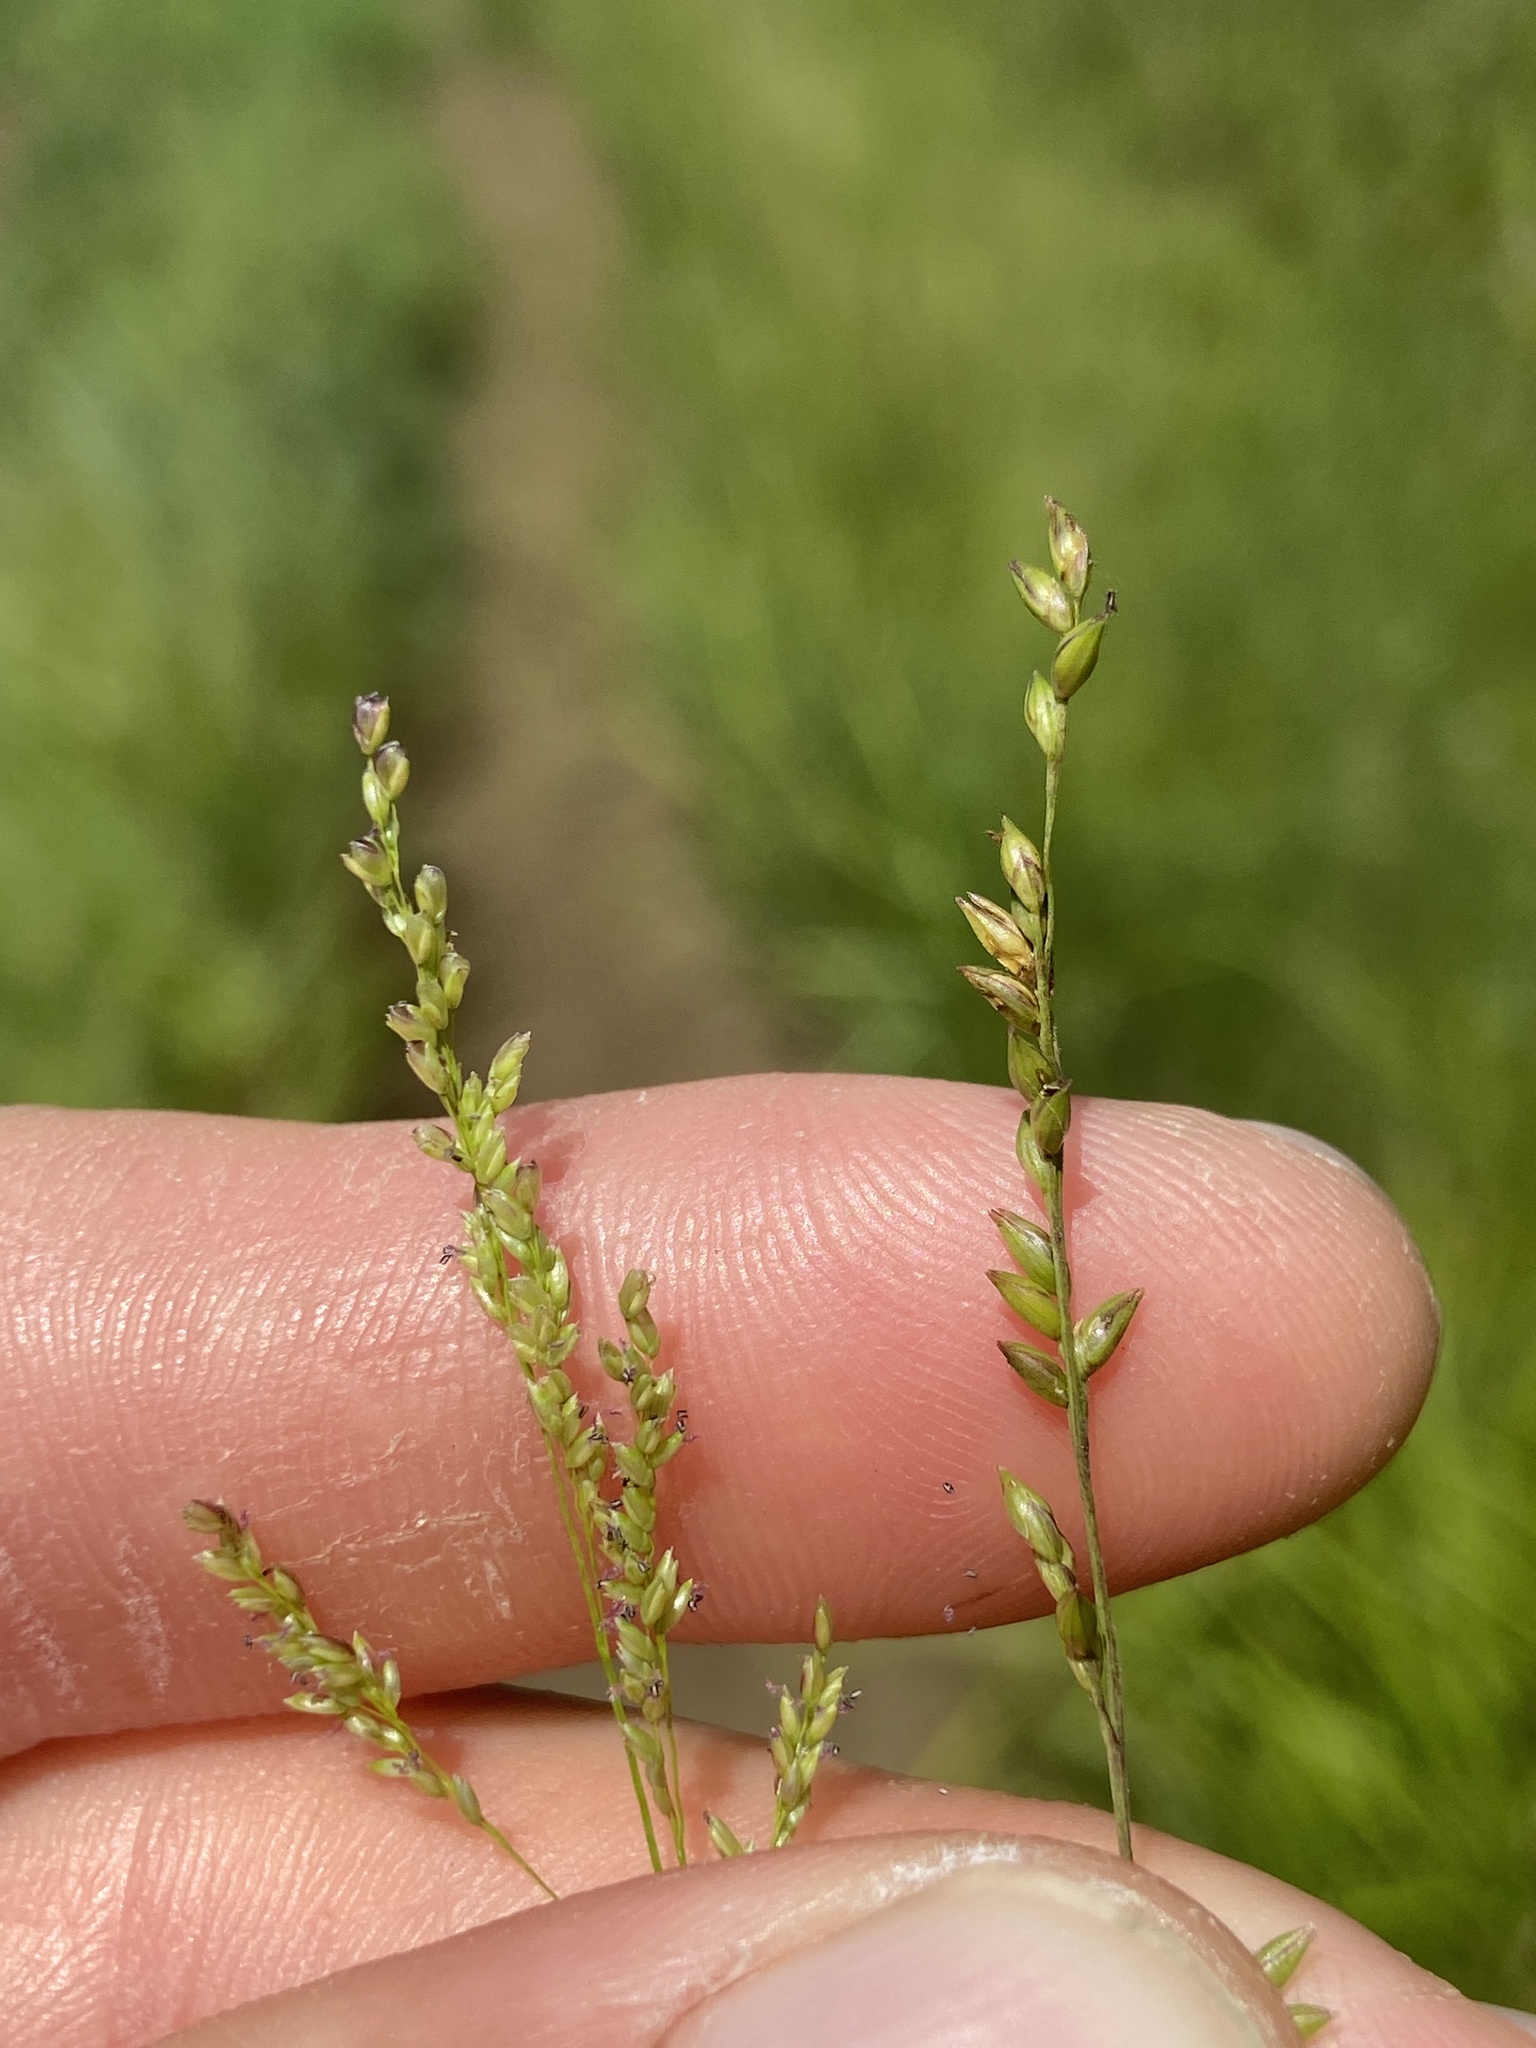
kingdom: Plantae
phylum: Tracheophyta
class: Liliopsida
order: Poales
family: Poaceae
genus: Steinchisma
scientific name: Steinchisma hians
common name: Gaping panic grass
